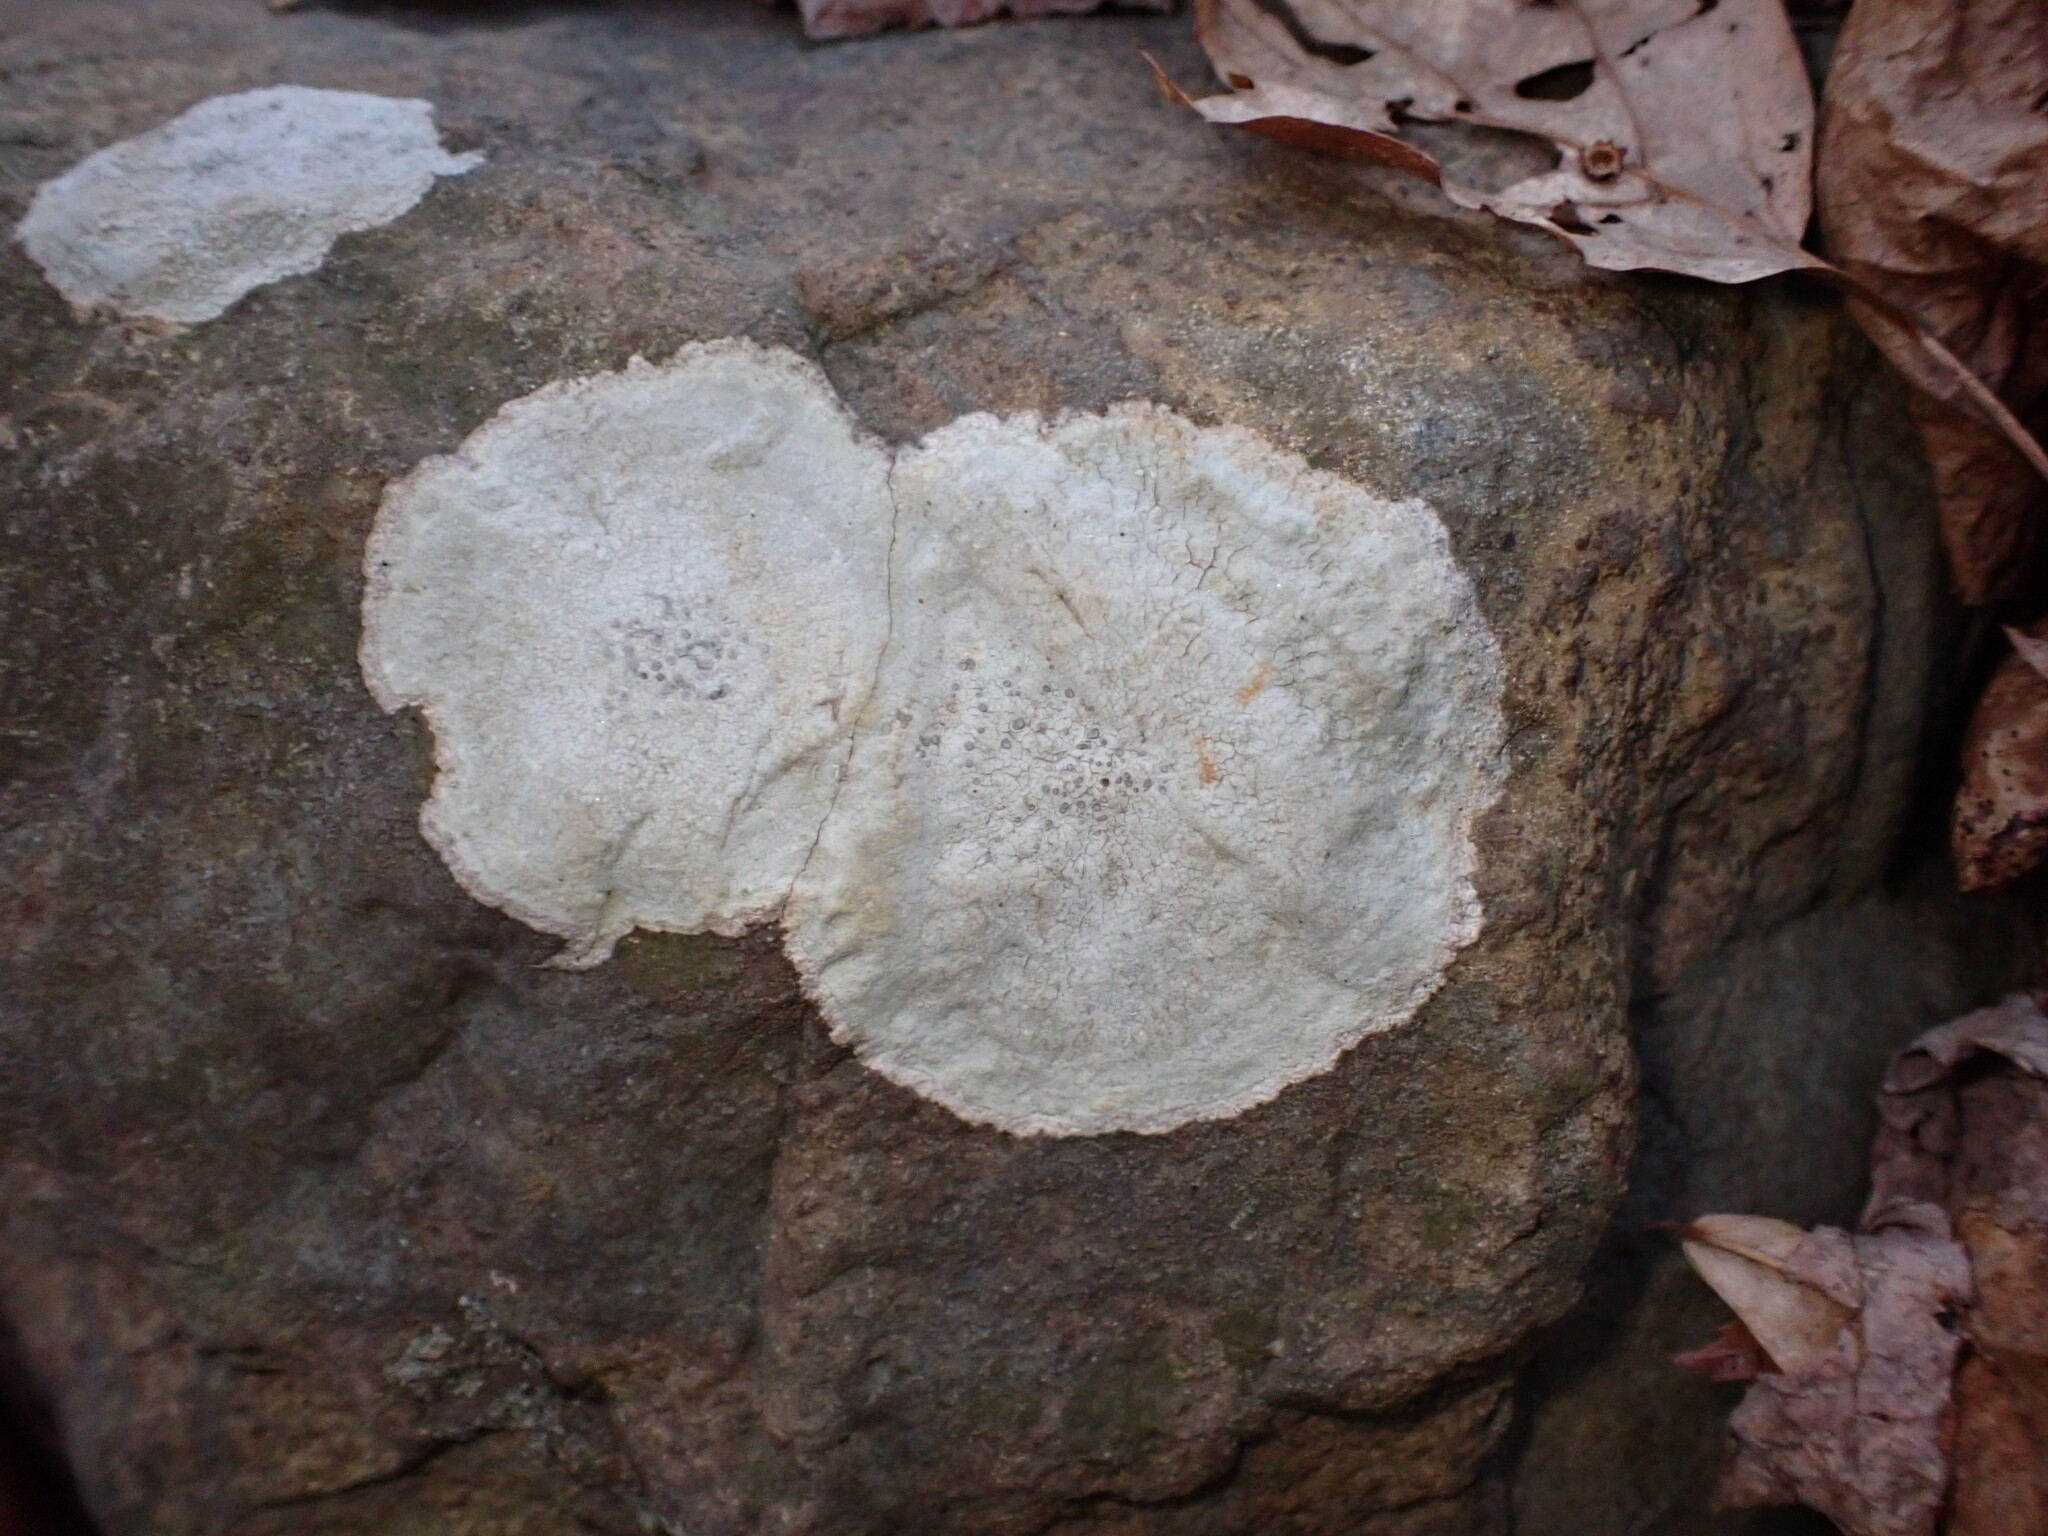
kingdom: Fungi
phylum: Ascomycota
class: Lecanoromycetes
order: Lecideales
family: Lecideaceae
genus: Porpidia
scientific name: Porpidia albocaerulescens
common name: Smokey-eyed boulder lichen
